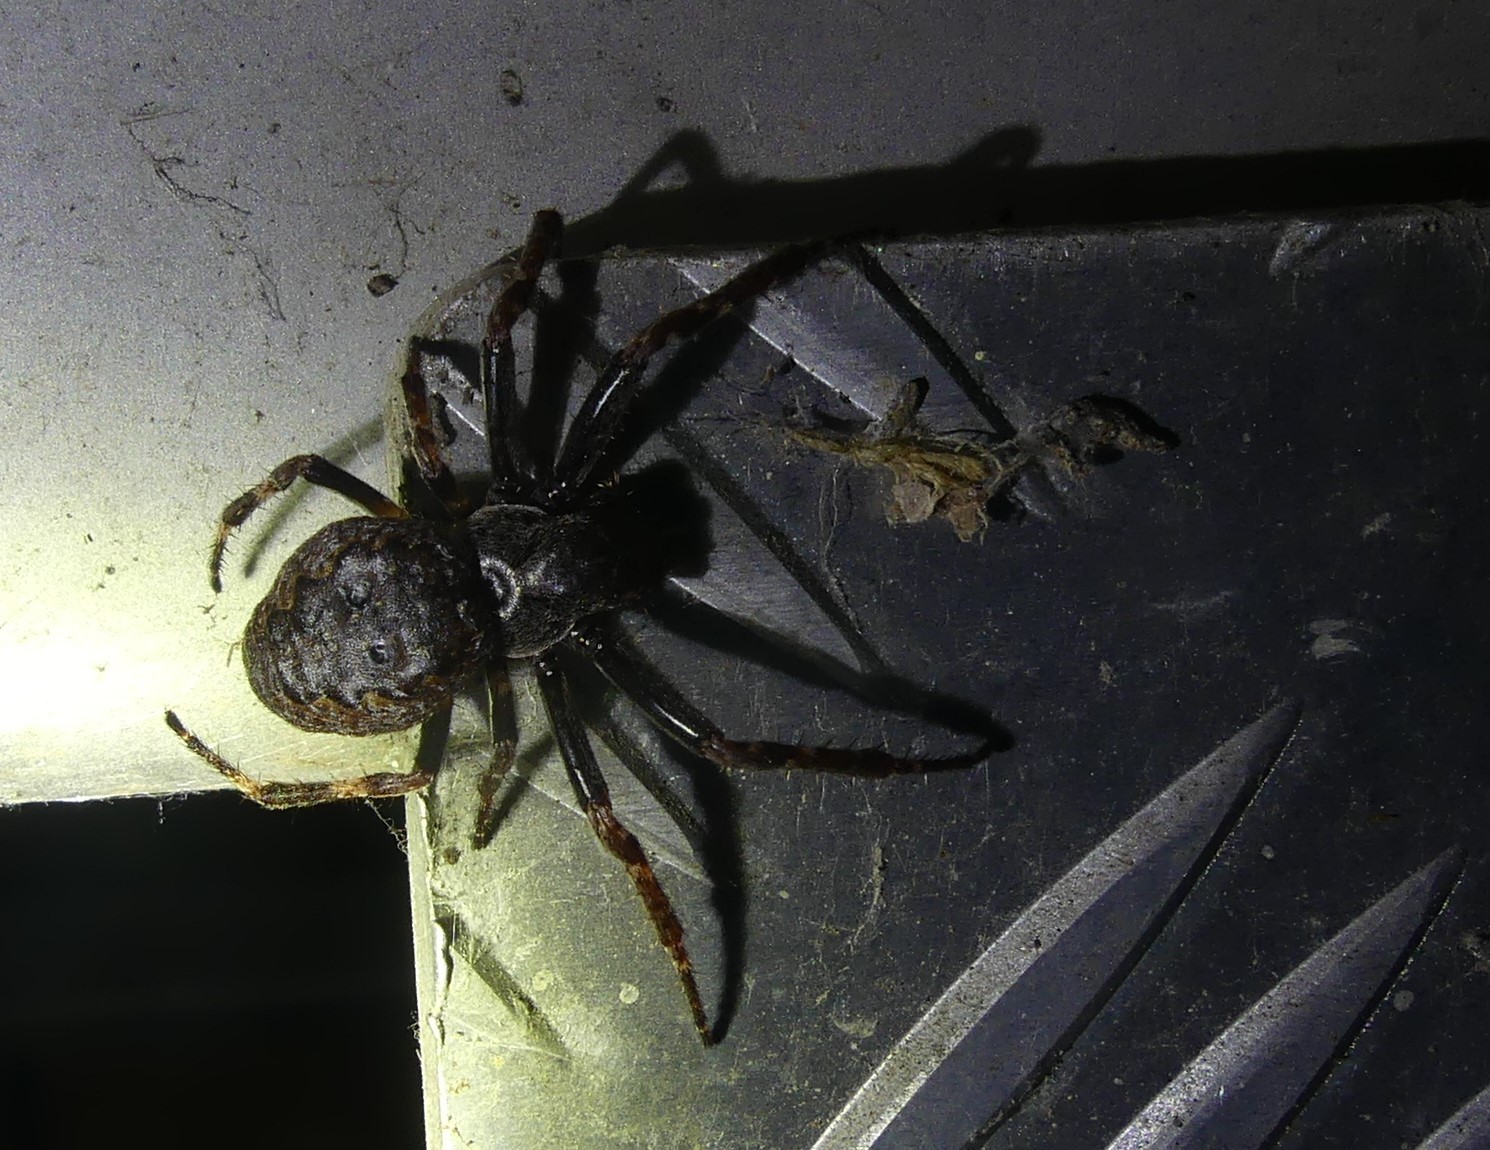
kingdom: Animalia
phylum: Arthropoda
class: Arachnida
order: Araneae
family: Araneidae
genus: Nuctenea
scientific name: Nuctenea umbratica
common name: Toad spider
